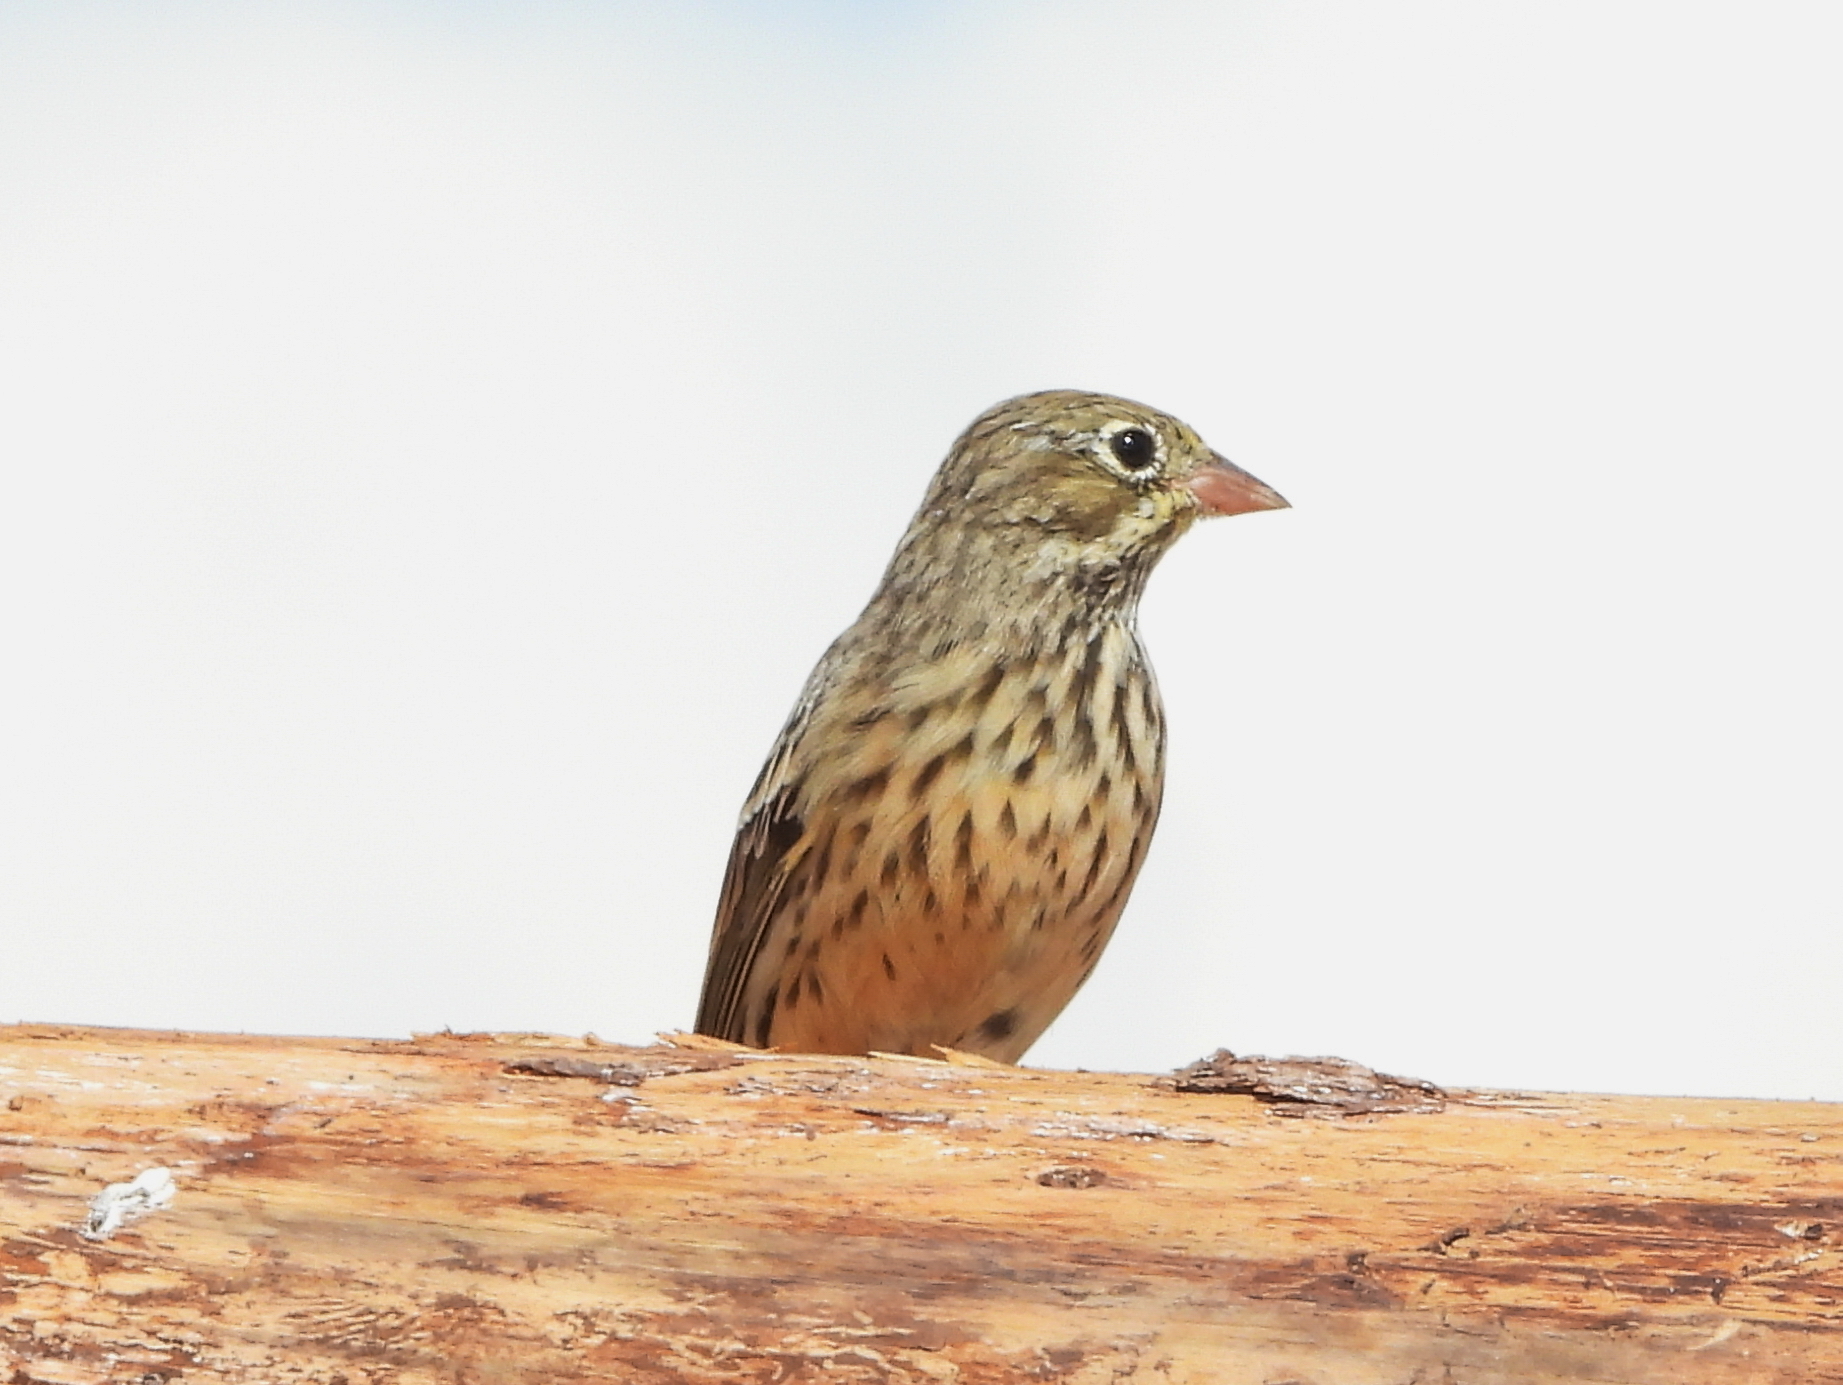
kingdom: Animalia
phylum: Chordata
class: Aves
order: Passeriformes
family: Emberizidae
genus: Emberiza
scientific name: Emberiza hortulana
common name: Ortolan bunting
